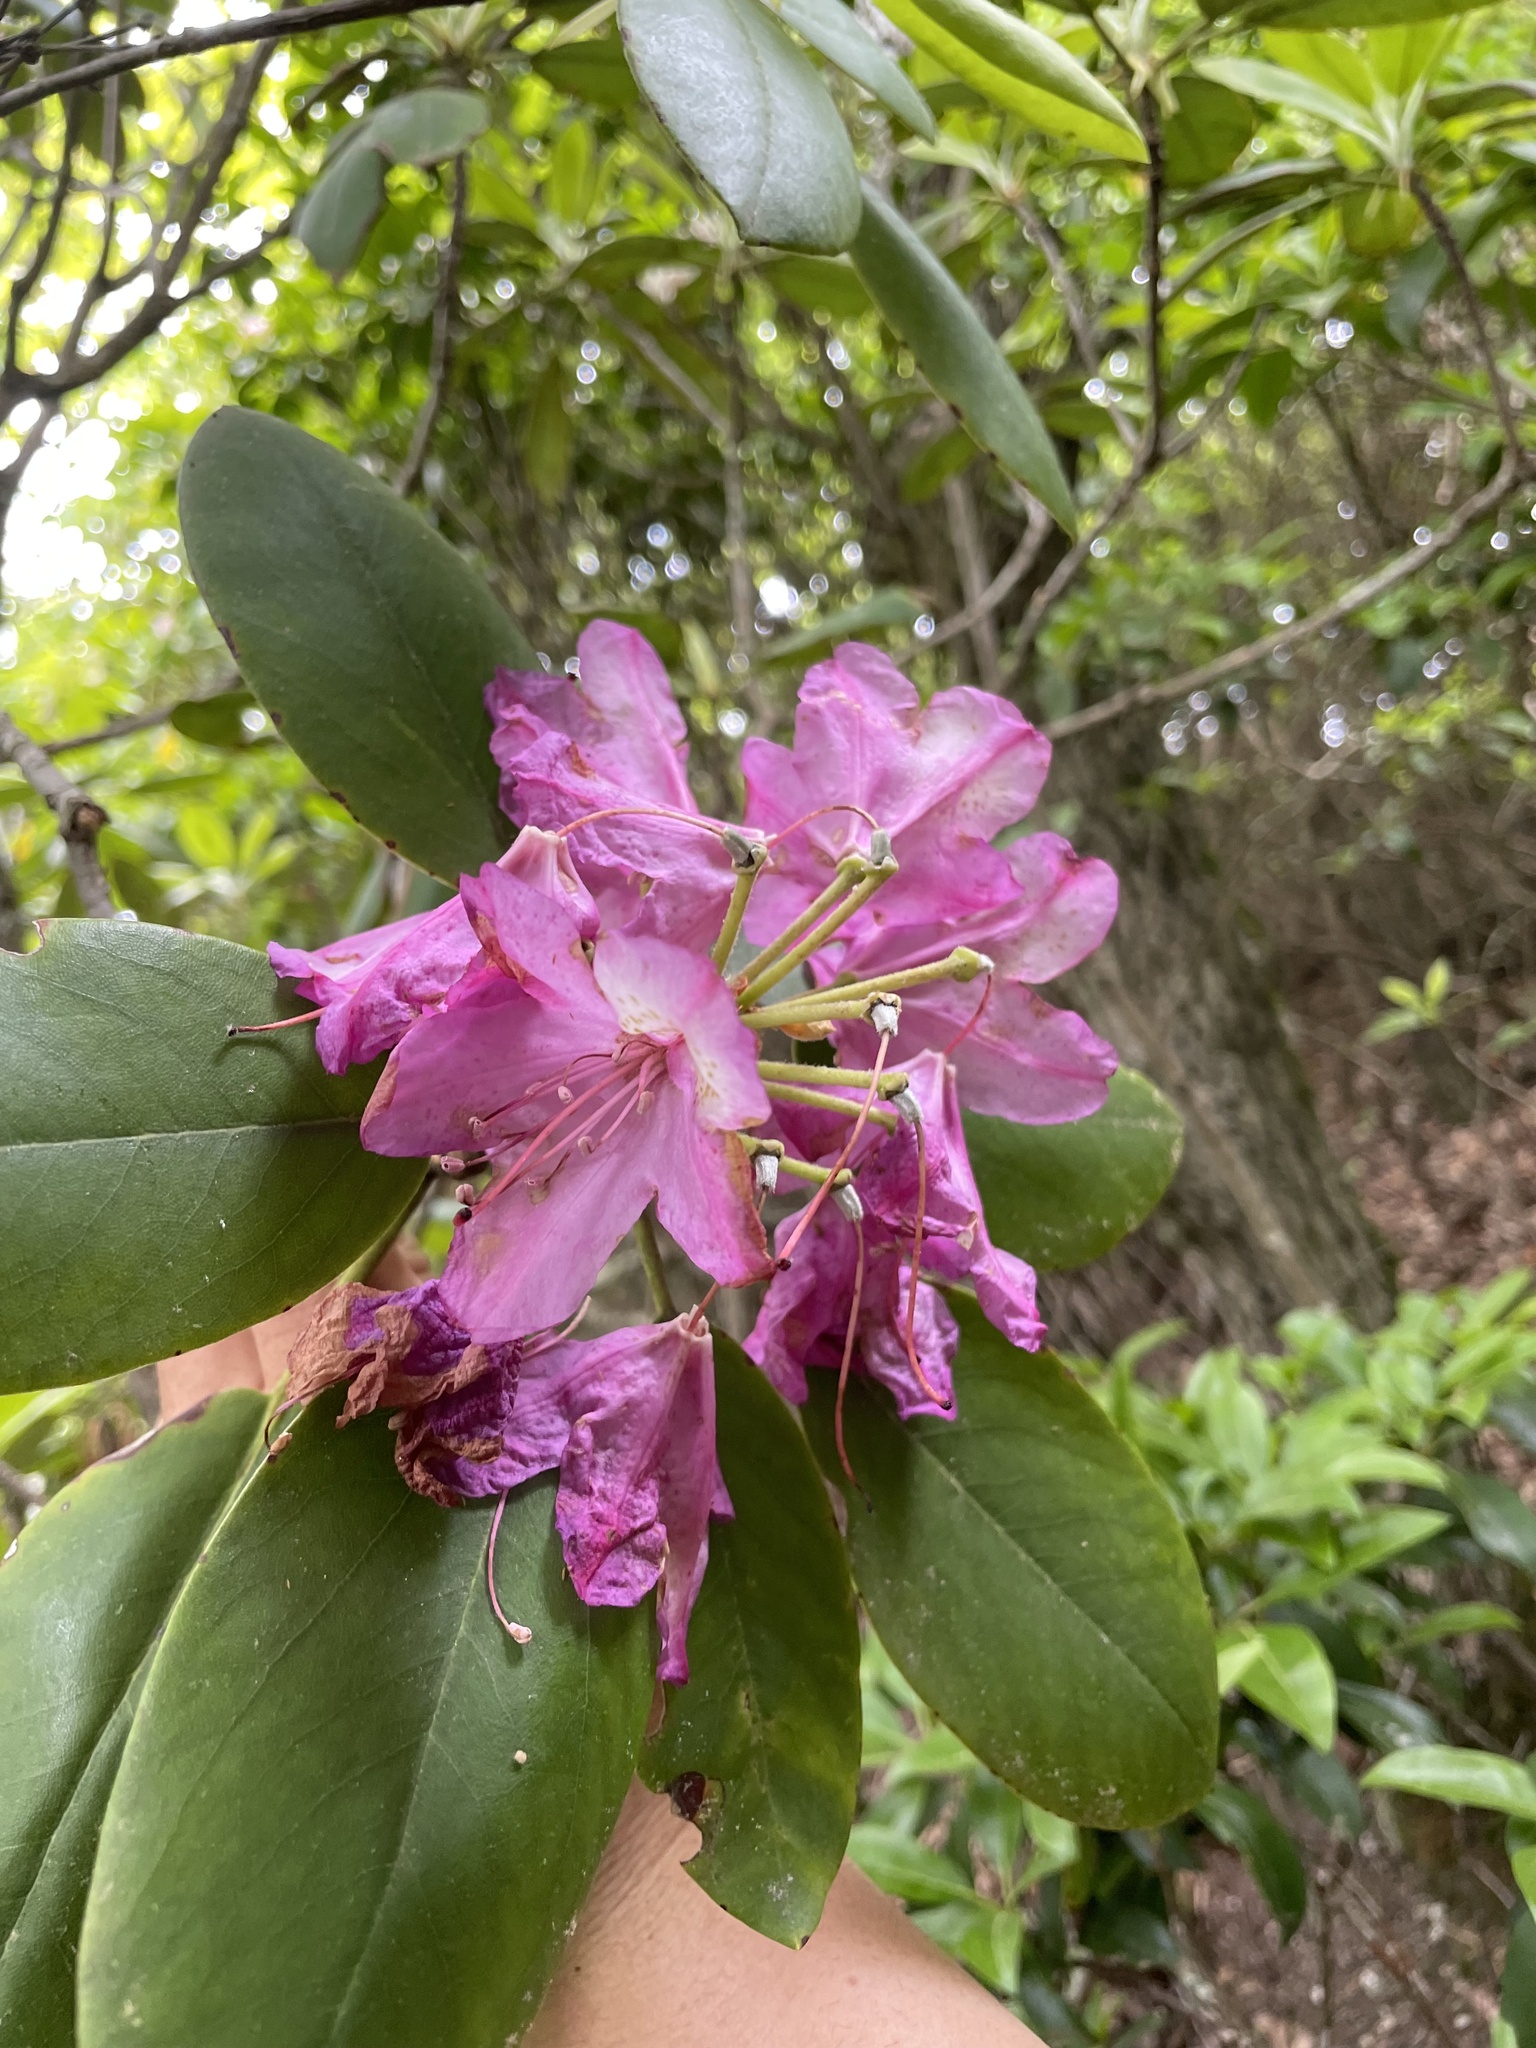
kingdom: Plantae
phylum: Tracheophyta
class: Magnoliopsida
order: Ericales
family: Ericaceae
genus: Rhododendron
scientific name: Rhododendron catawbiense
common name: Catawba rhododendron
